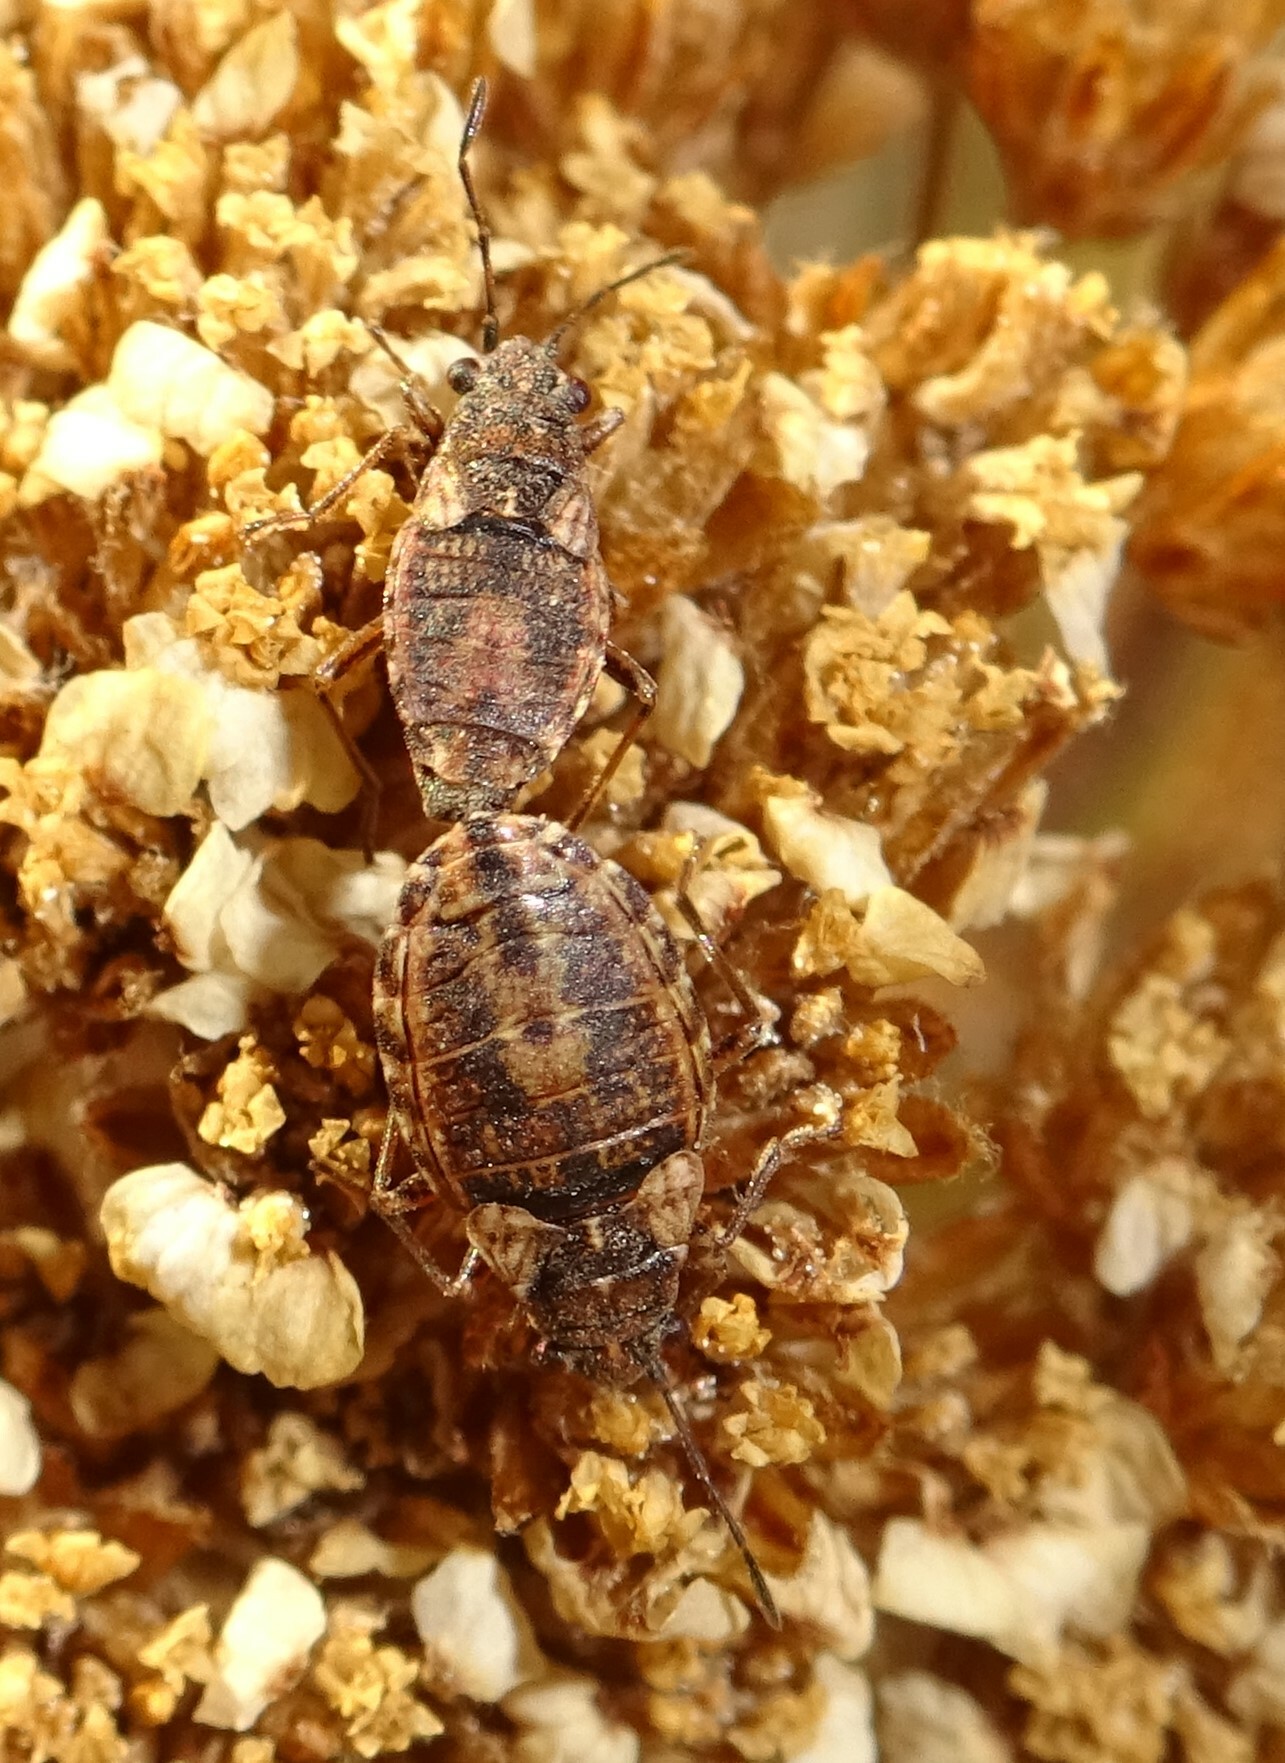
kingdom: Animalia
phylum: Arthropoda
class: Insecta
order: Hemiptera
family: Lygaeidae
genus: Nithecus
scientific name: Nithecus jacobaeae
